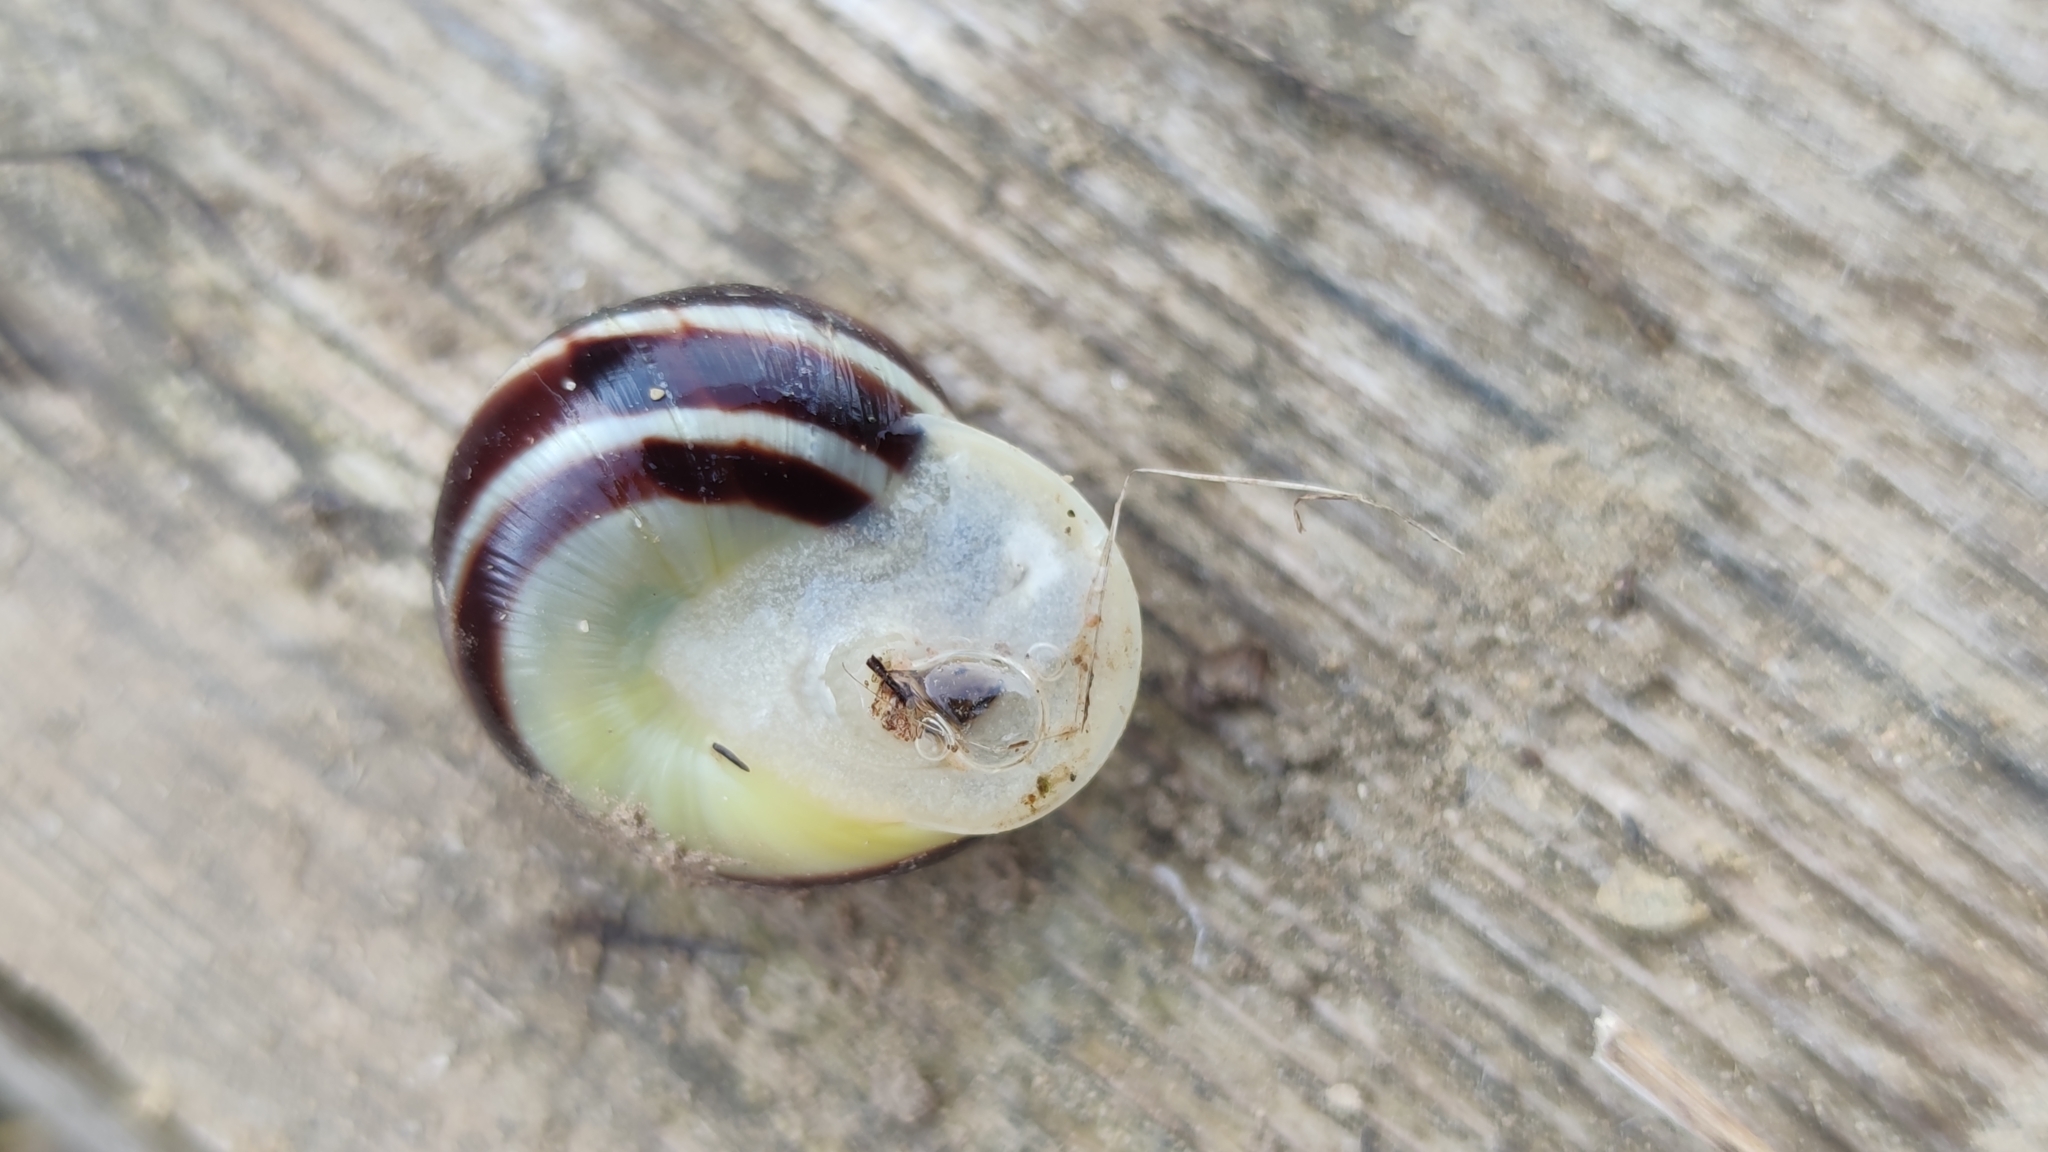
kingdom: Animalia
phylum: Mollusca
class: Gastropoda
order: Stylommatophora
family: Helicidae
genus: Cepaea
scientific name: Cepaea hortensis
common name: White-lip gardensnail
